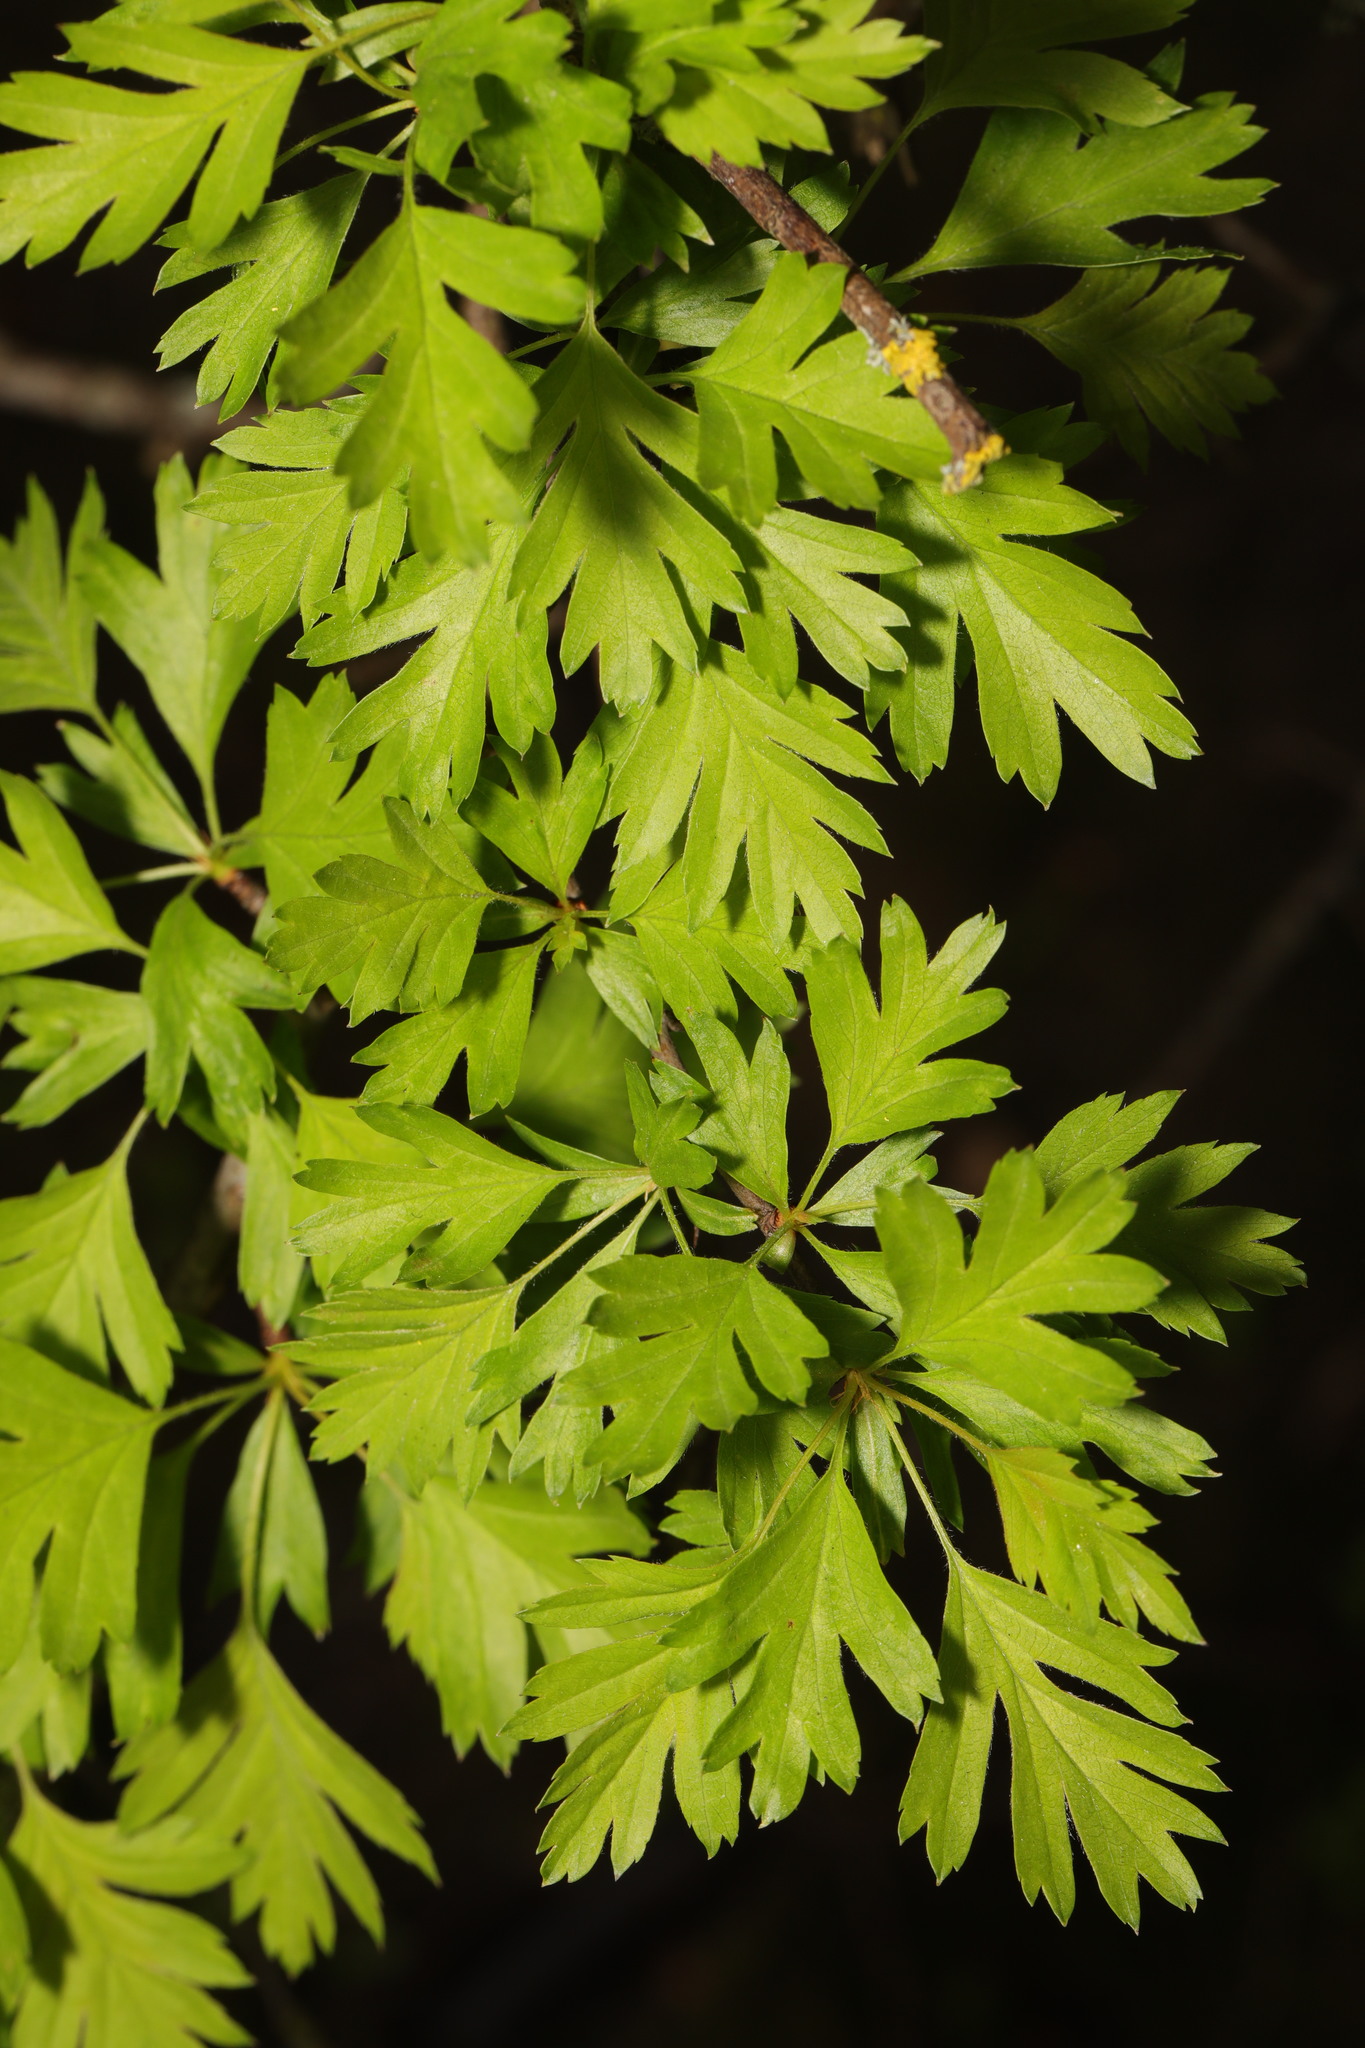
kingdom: Plantae
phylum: Tracheophyta
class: Magnoliopsida
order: Rosales
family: Rosaceae
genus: Crataegus
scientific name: Crataegus monogyna
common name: Hawthorn
